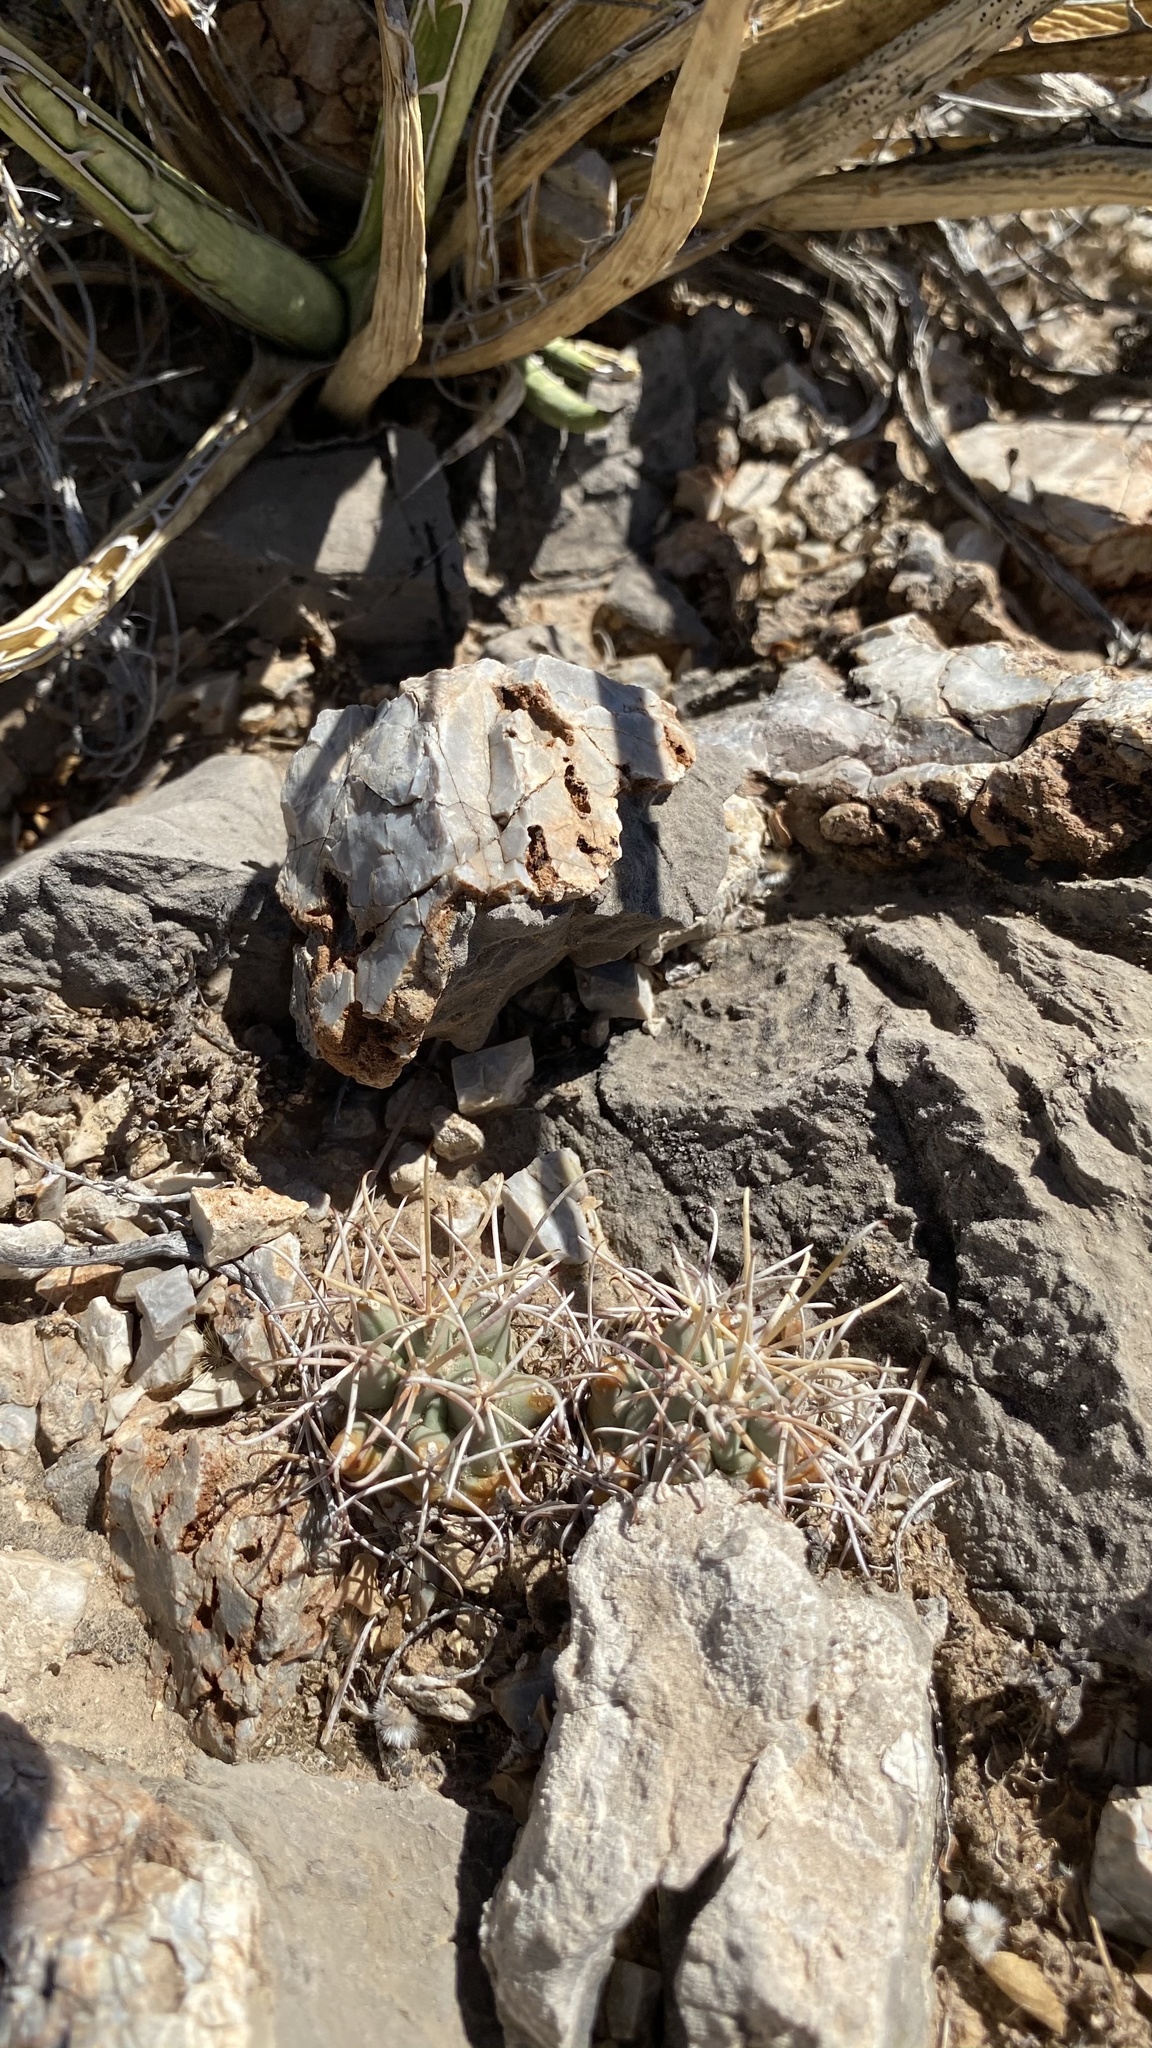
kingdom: Plantae
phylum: Tracheophyta
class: Magnoliopsida
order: Caryophyllales
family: Cactaceae
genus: Ferocactus
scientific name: Ferocactus uncinatus
